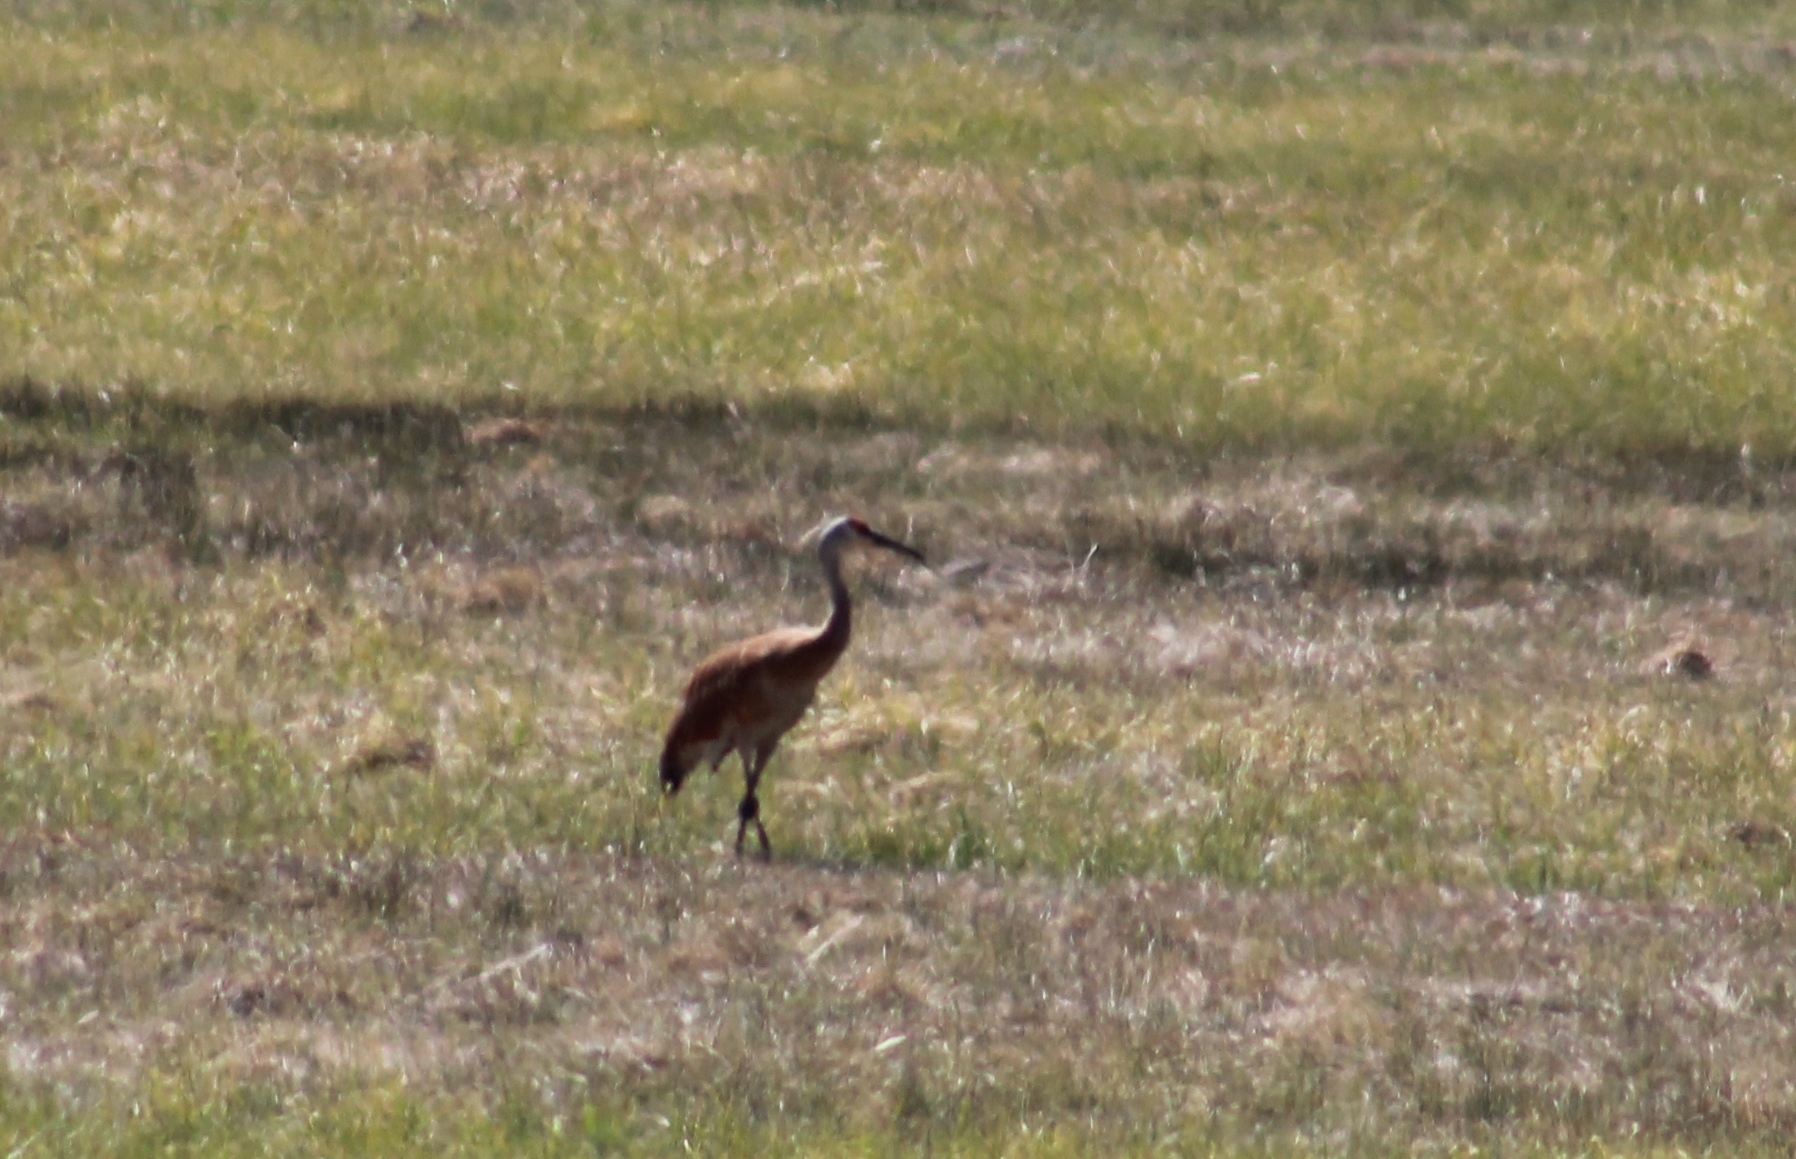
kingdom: Animalia
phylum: Chordata
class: Aves
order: Gruiformes
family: Gruidae
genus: Grus
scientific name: Grus canadensis
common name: Sandhill crane
